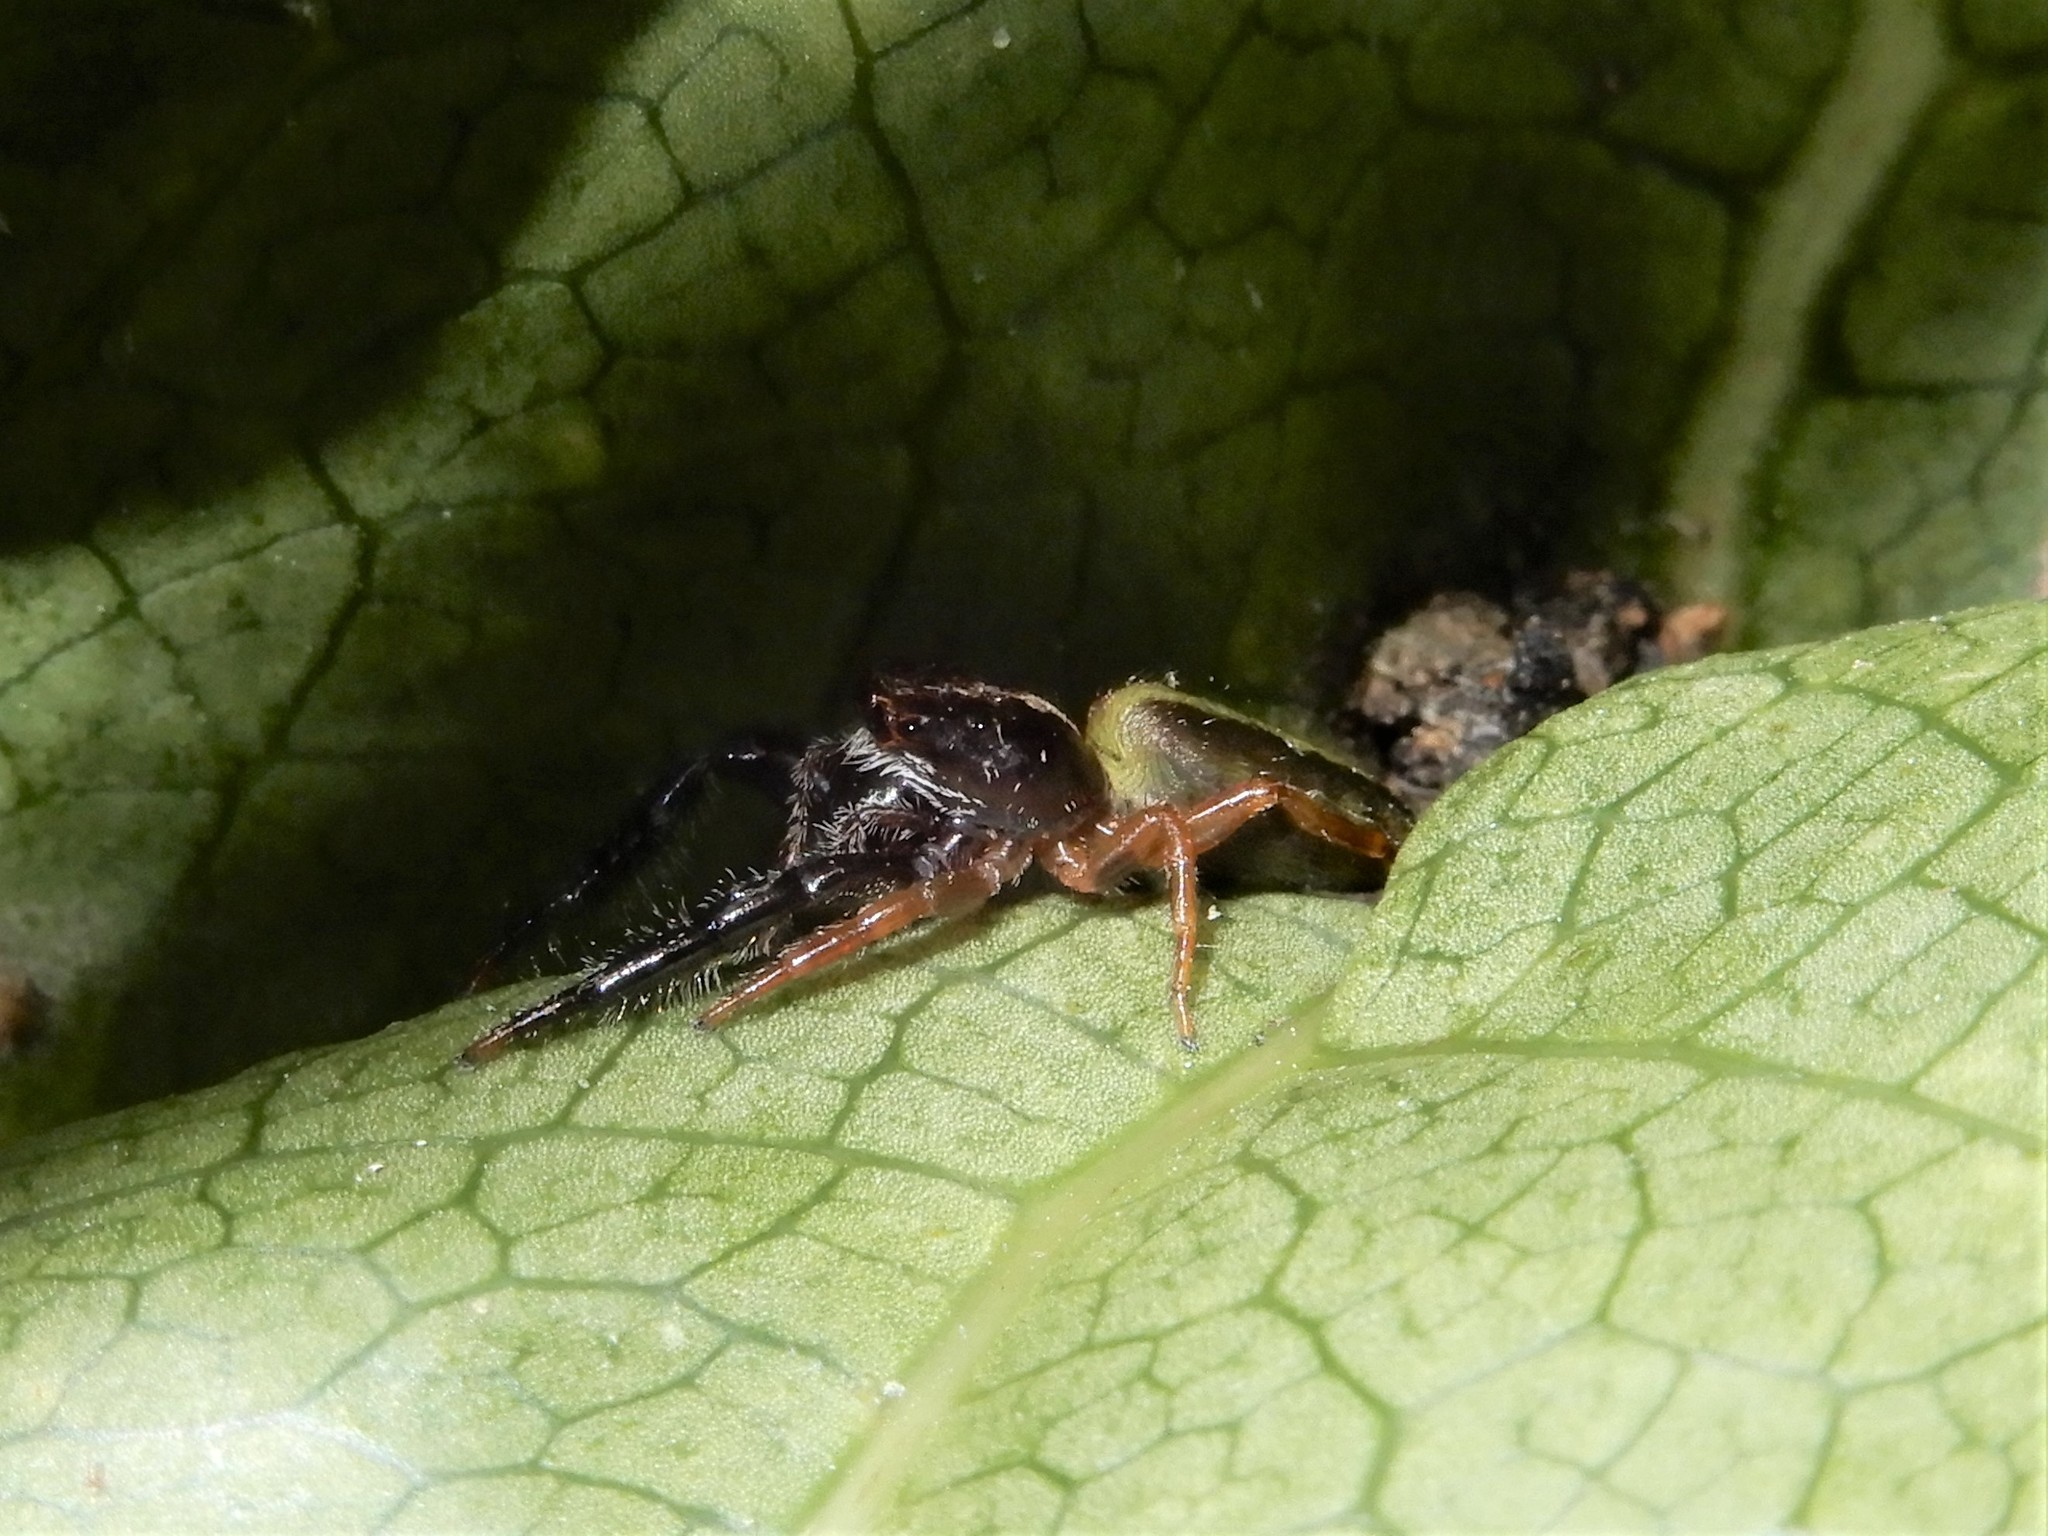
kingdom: Animalia
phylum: Arthropoda
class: Arachnida
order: Araneae
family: Salticidae
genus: Trite
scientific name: Trite planiceps
